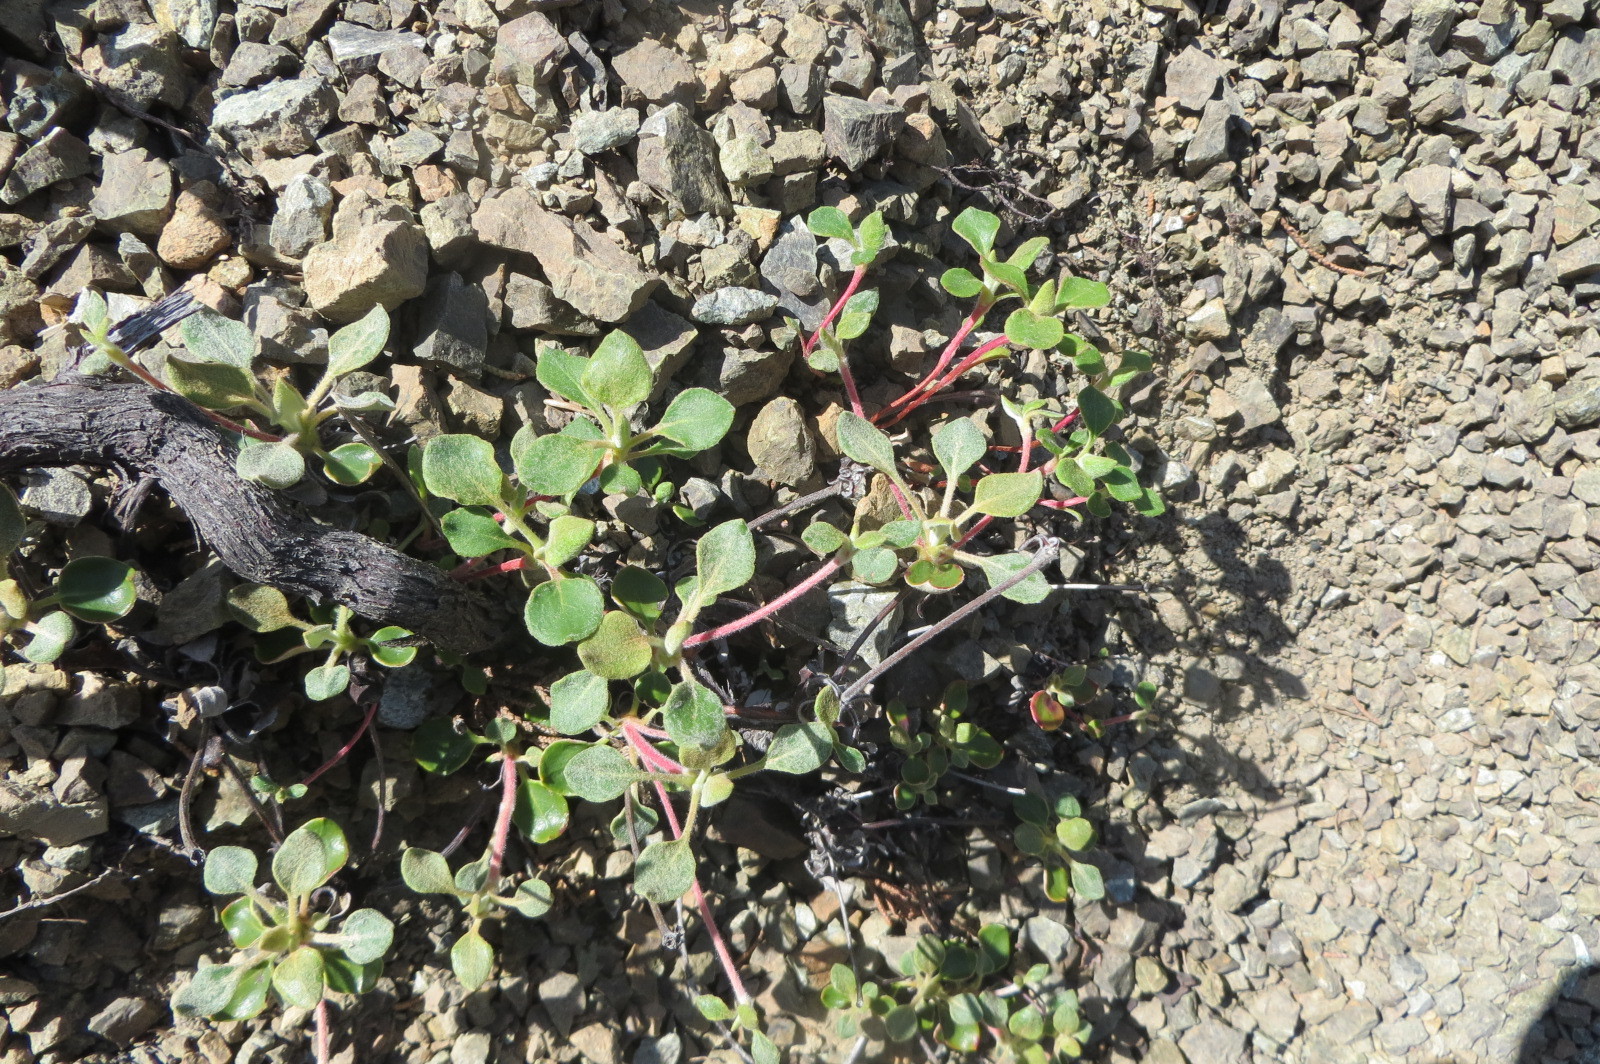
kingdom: Plantae
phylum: Tracheophyta
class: Magnoliopsida
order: Caryophyllales
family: Polygonaceae
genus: Eriogonum
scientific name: Eriogonum cedrorum
